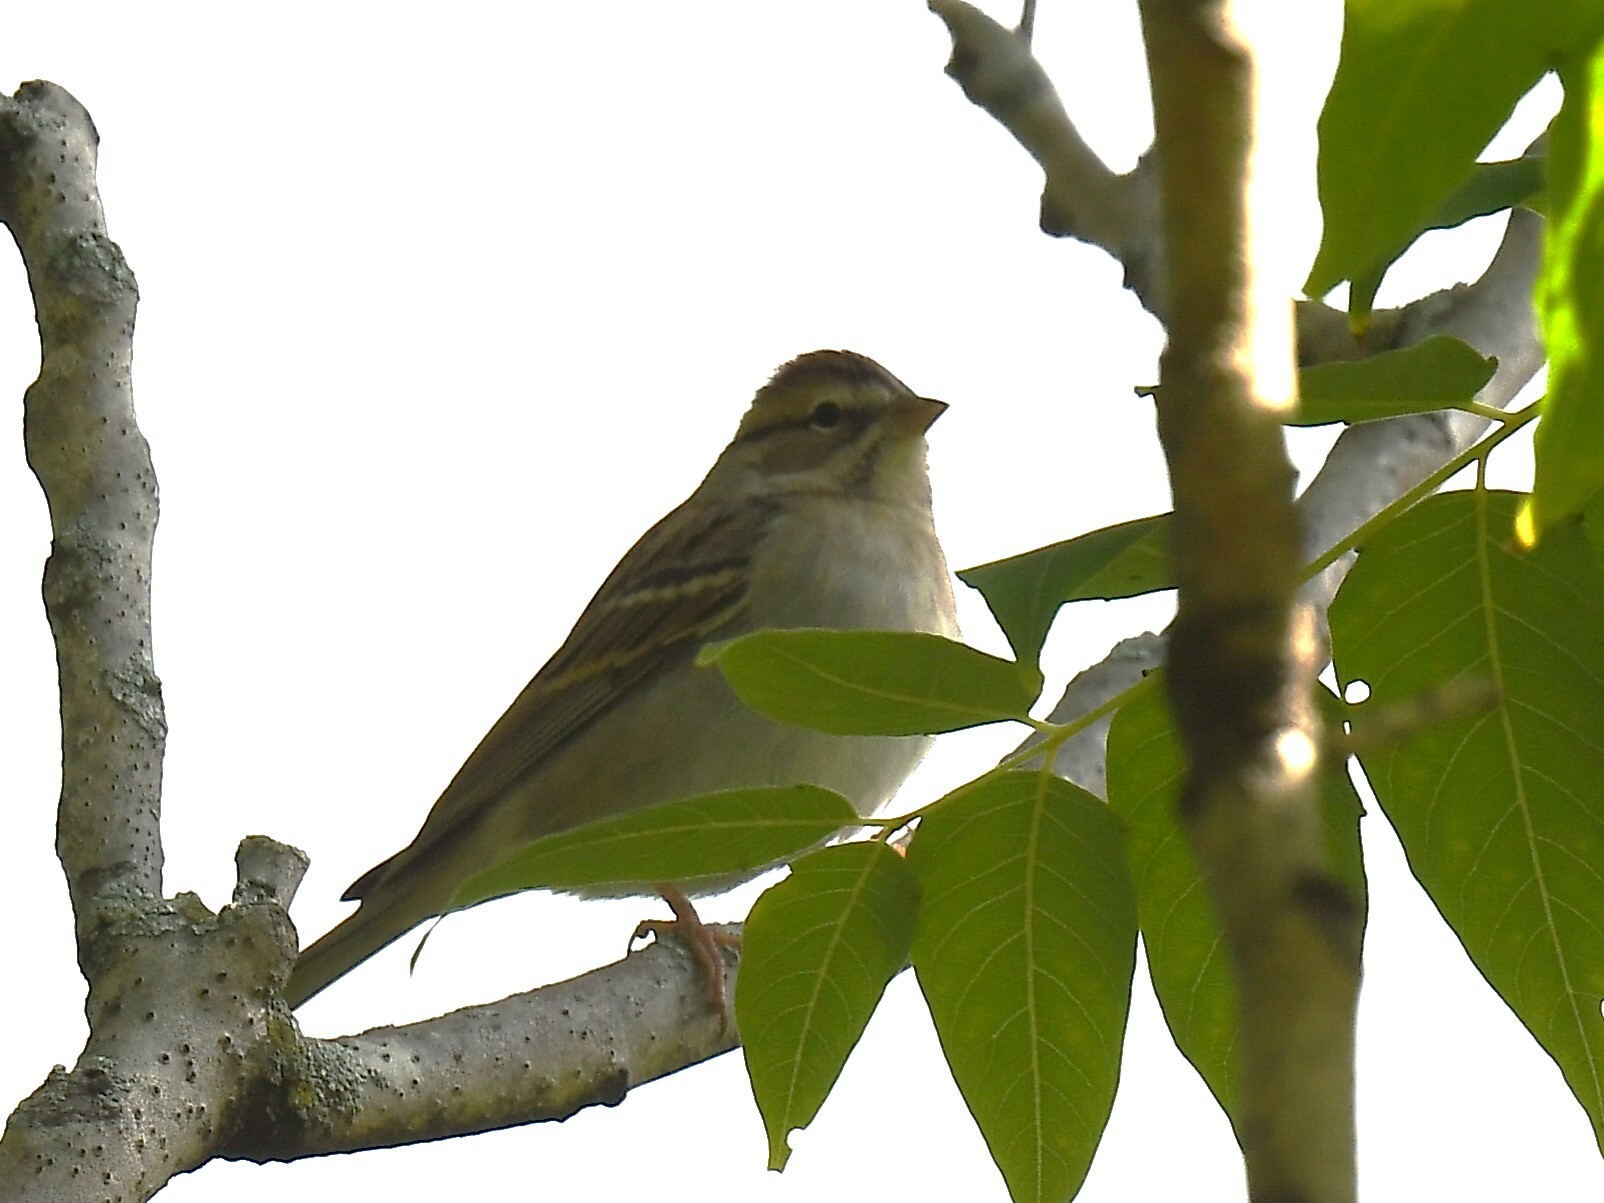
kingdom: Animalia
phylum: Chordata
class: Aves
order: Passeriformes
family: Passerellidae
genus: Spizella
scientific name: Spizella passerina
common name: Chipping sparrow
